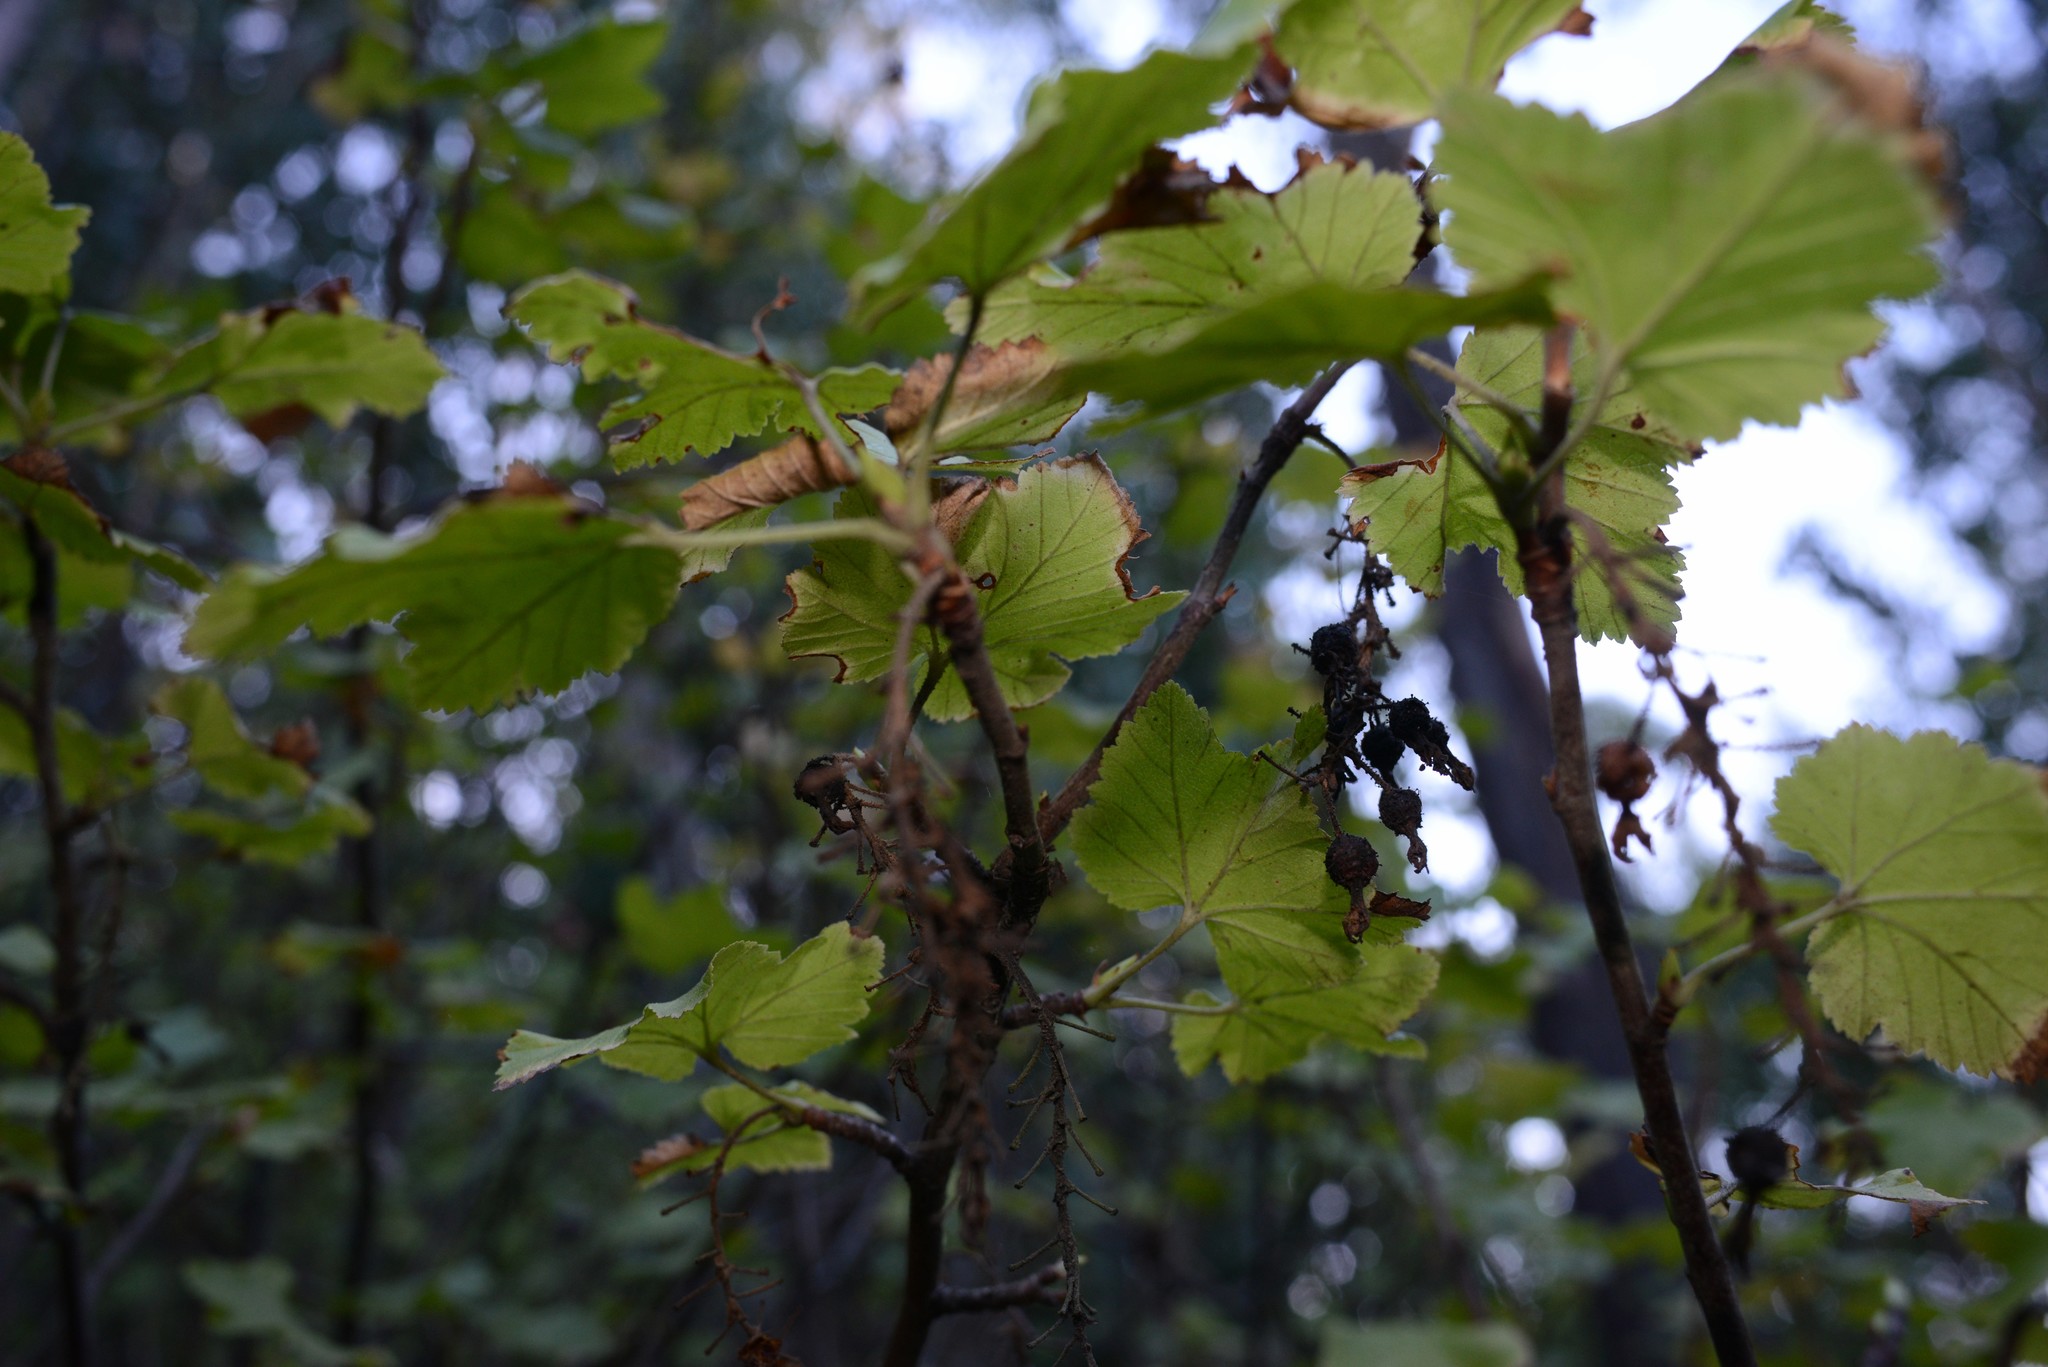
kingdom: Plantae
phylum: Tracheophyta
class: Magnoliopsida
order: Saxifragales
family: Grossulariaceae
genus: Ribes
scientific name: Ribes sanguineum
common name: Flowering currant
